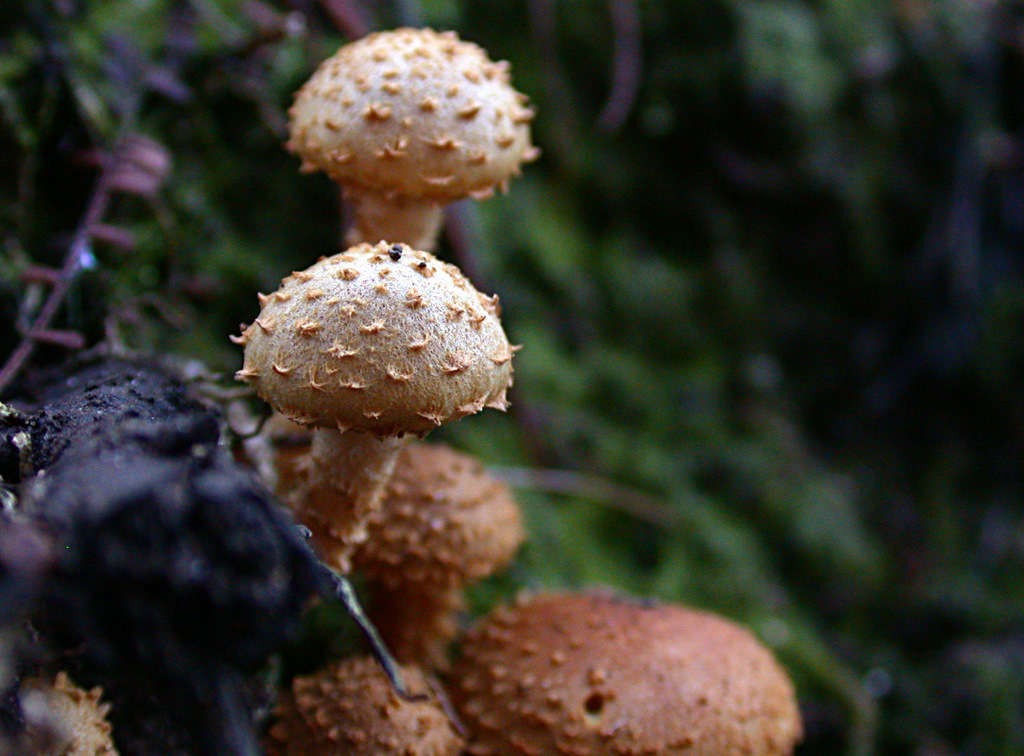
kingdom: Fungi
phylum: Basidiomycota
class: Agaricomycetes
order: Agaricales
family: Strophariaceae
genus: Pholiota
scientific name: Pholiota squarrosipes
